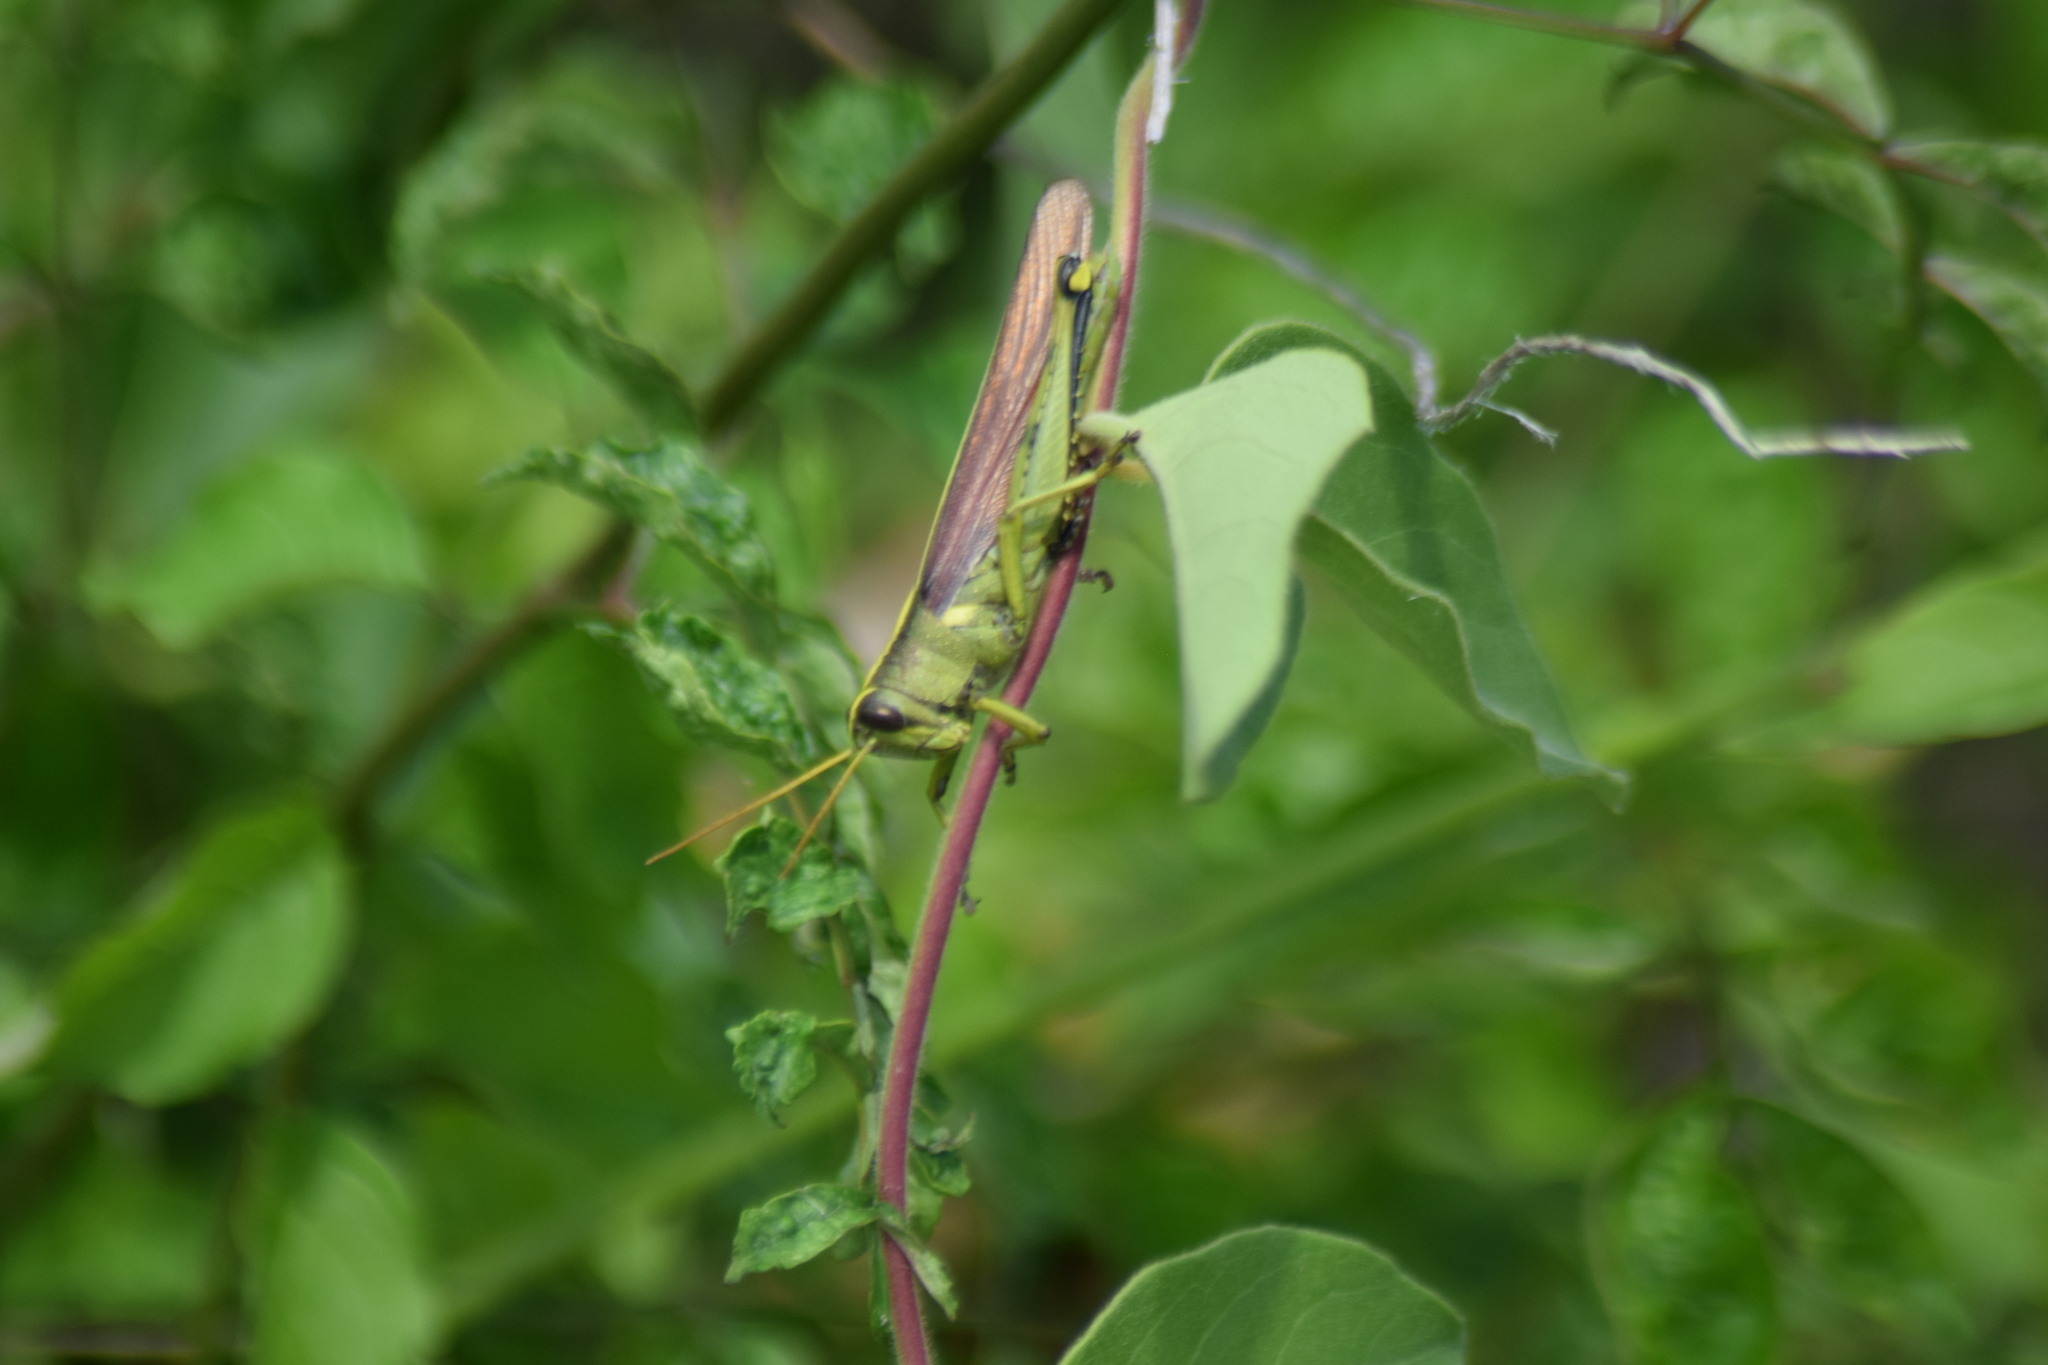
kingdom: Animalia
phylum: Arthropoda
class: Insecta
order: Orthoptera
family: Acrididae
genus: Schistocerca
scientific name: Schistocerca obscura
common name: Obscure bird grasshopper
